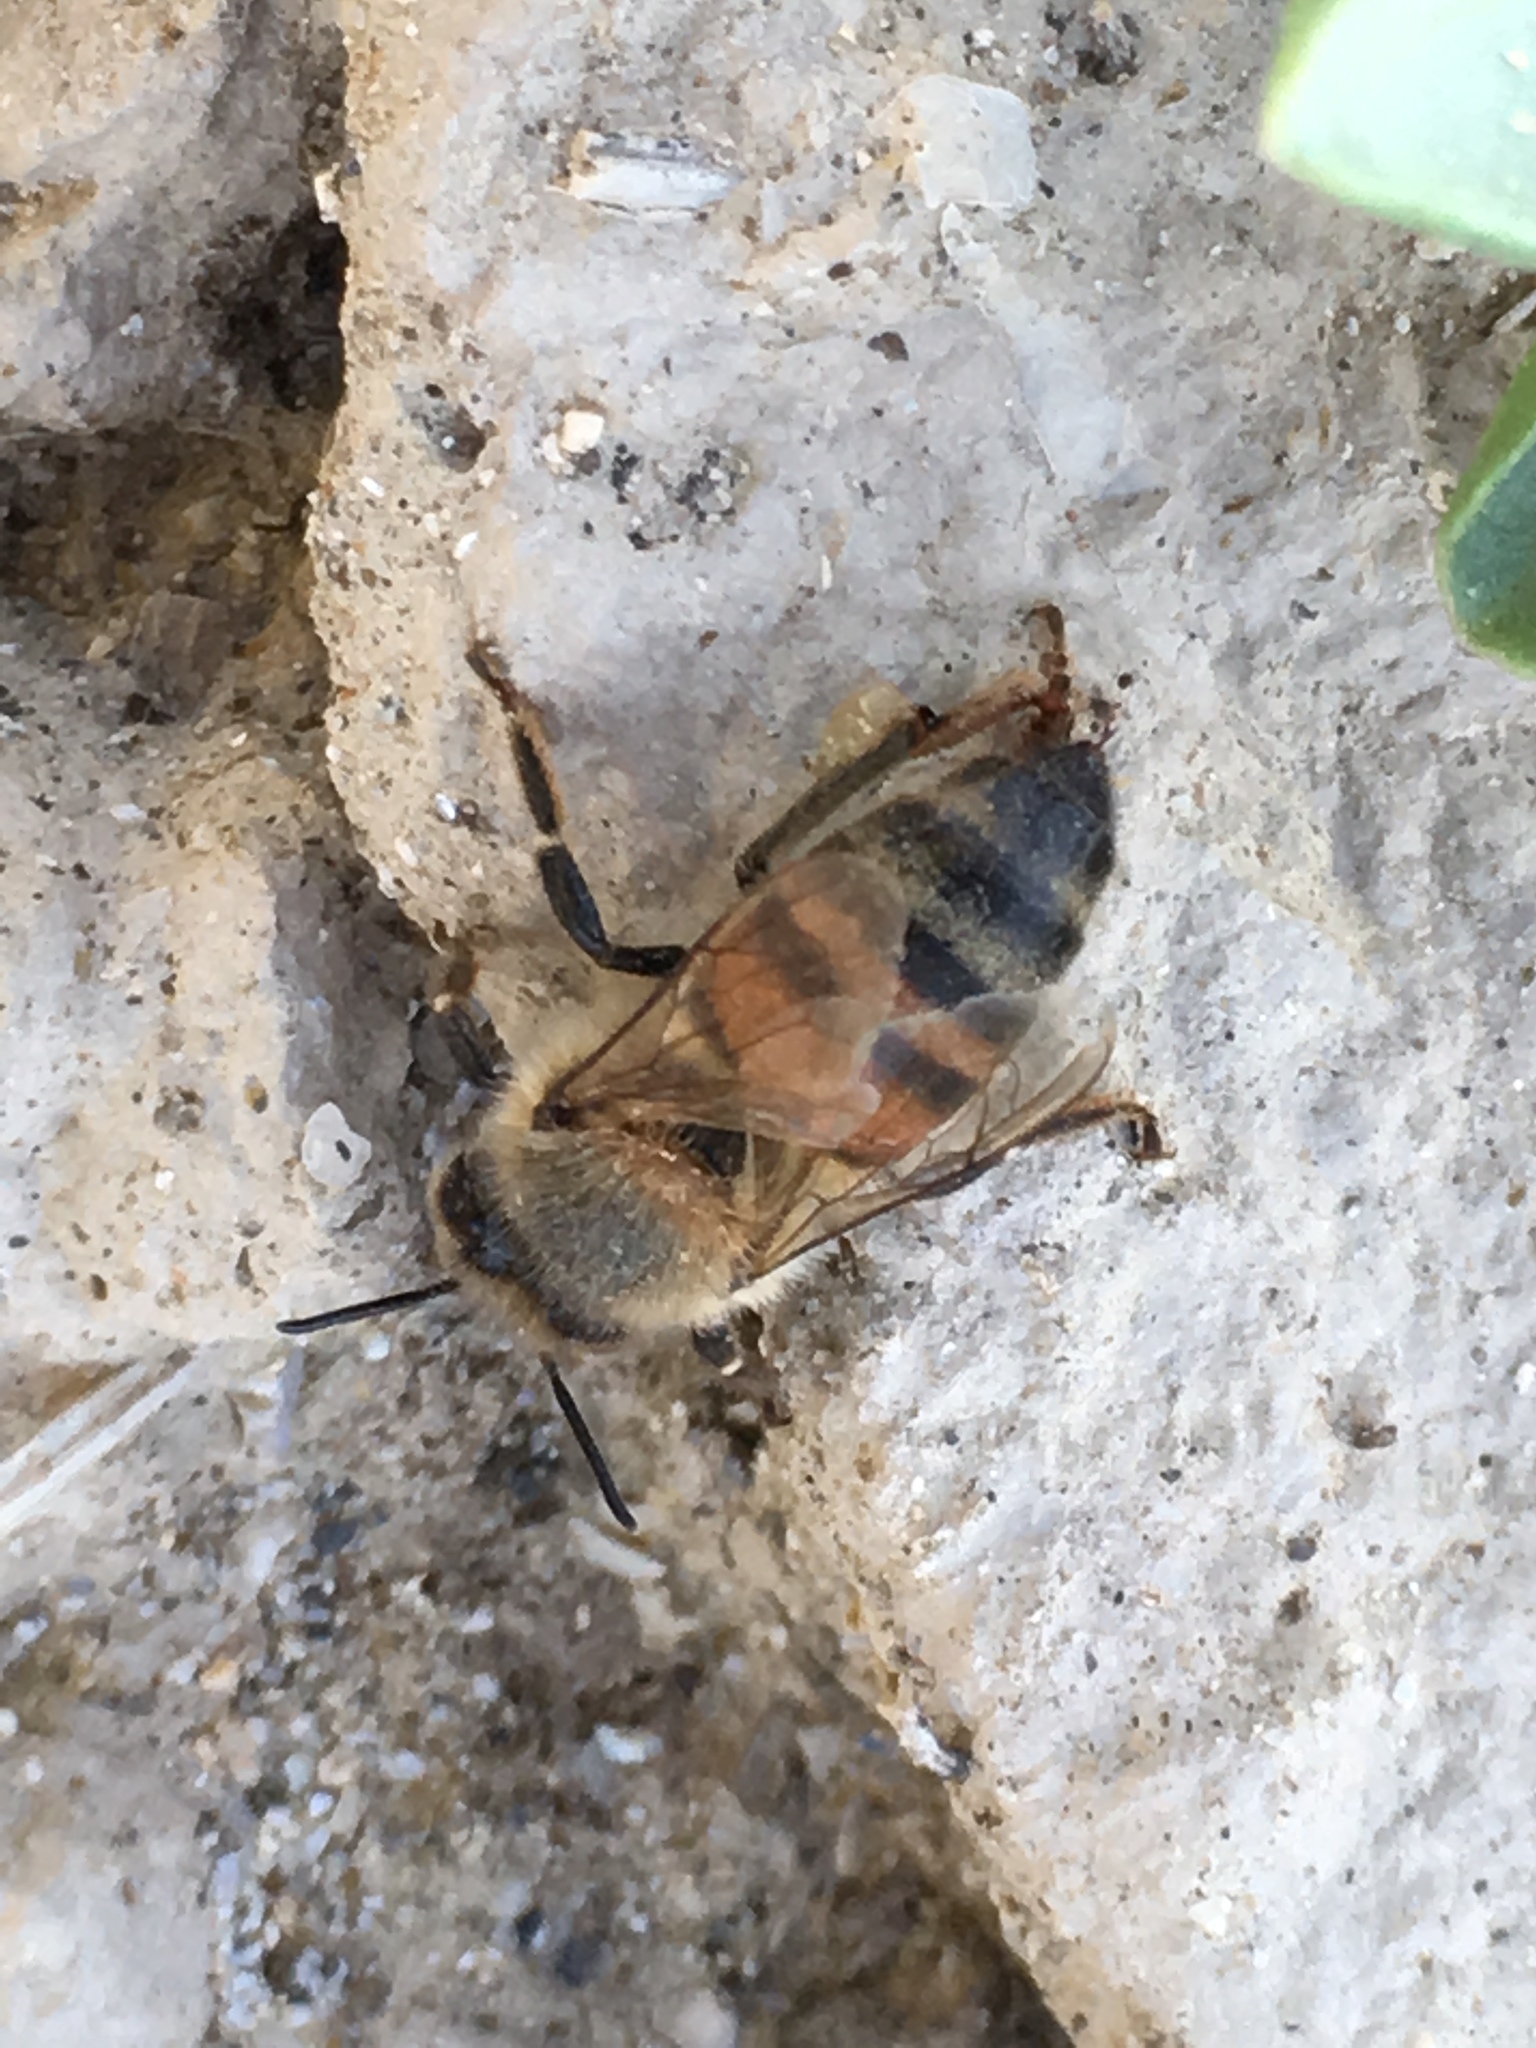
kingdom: Animalia
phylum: Arthropoda
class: Insecta
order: Hymenoptera
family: Apidae
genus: Apis
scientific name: Apis mellifera
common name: Honey bee
